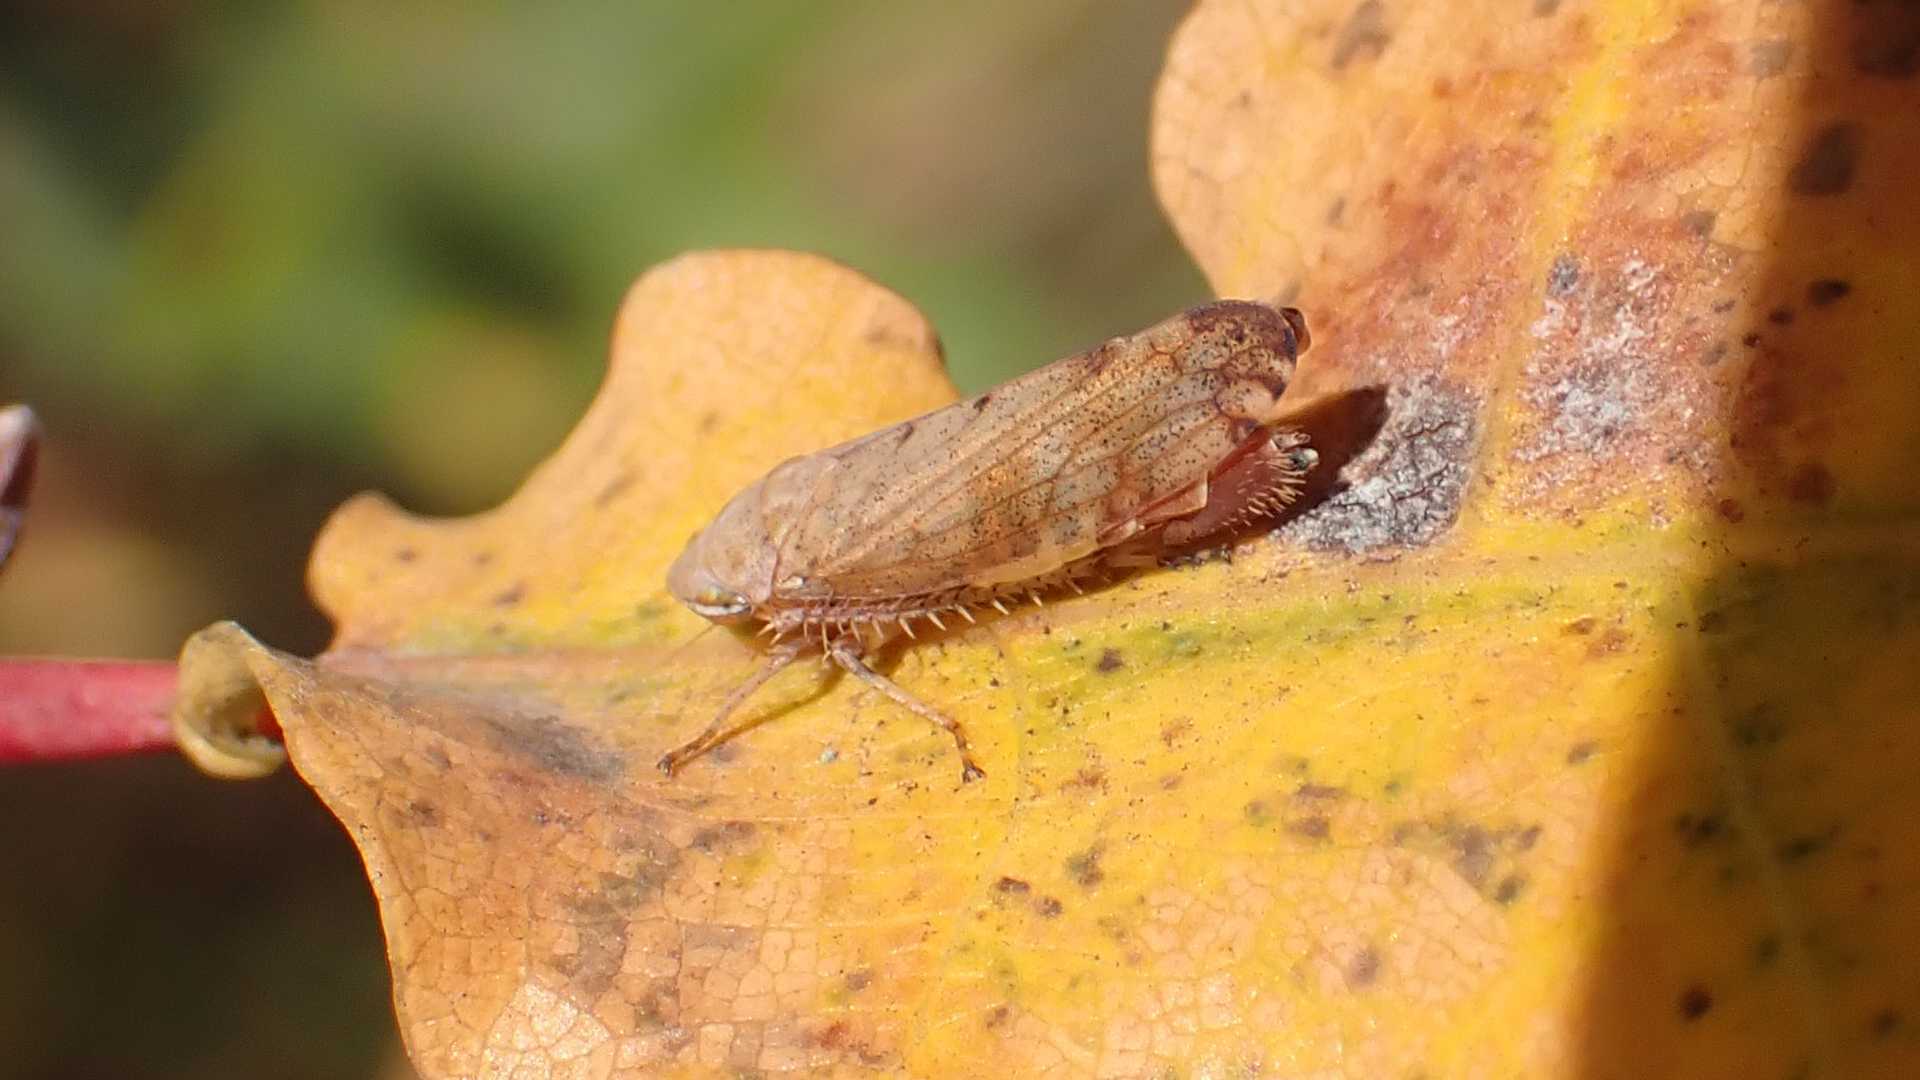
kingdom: Animalia
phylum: Arthropoda
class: Insecta
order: Hemiptera
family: Cicadellidae
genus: Fieberiella
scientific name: Fieberiella
